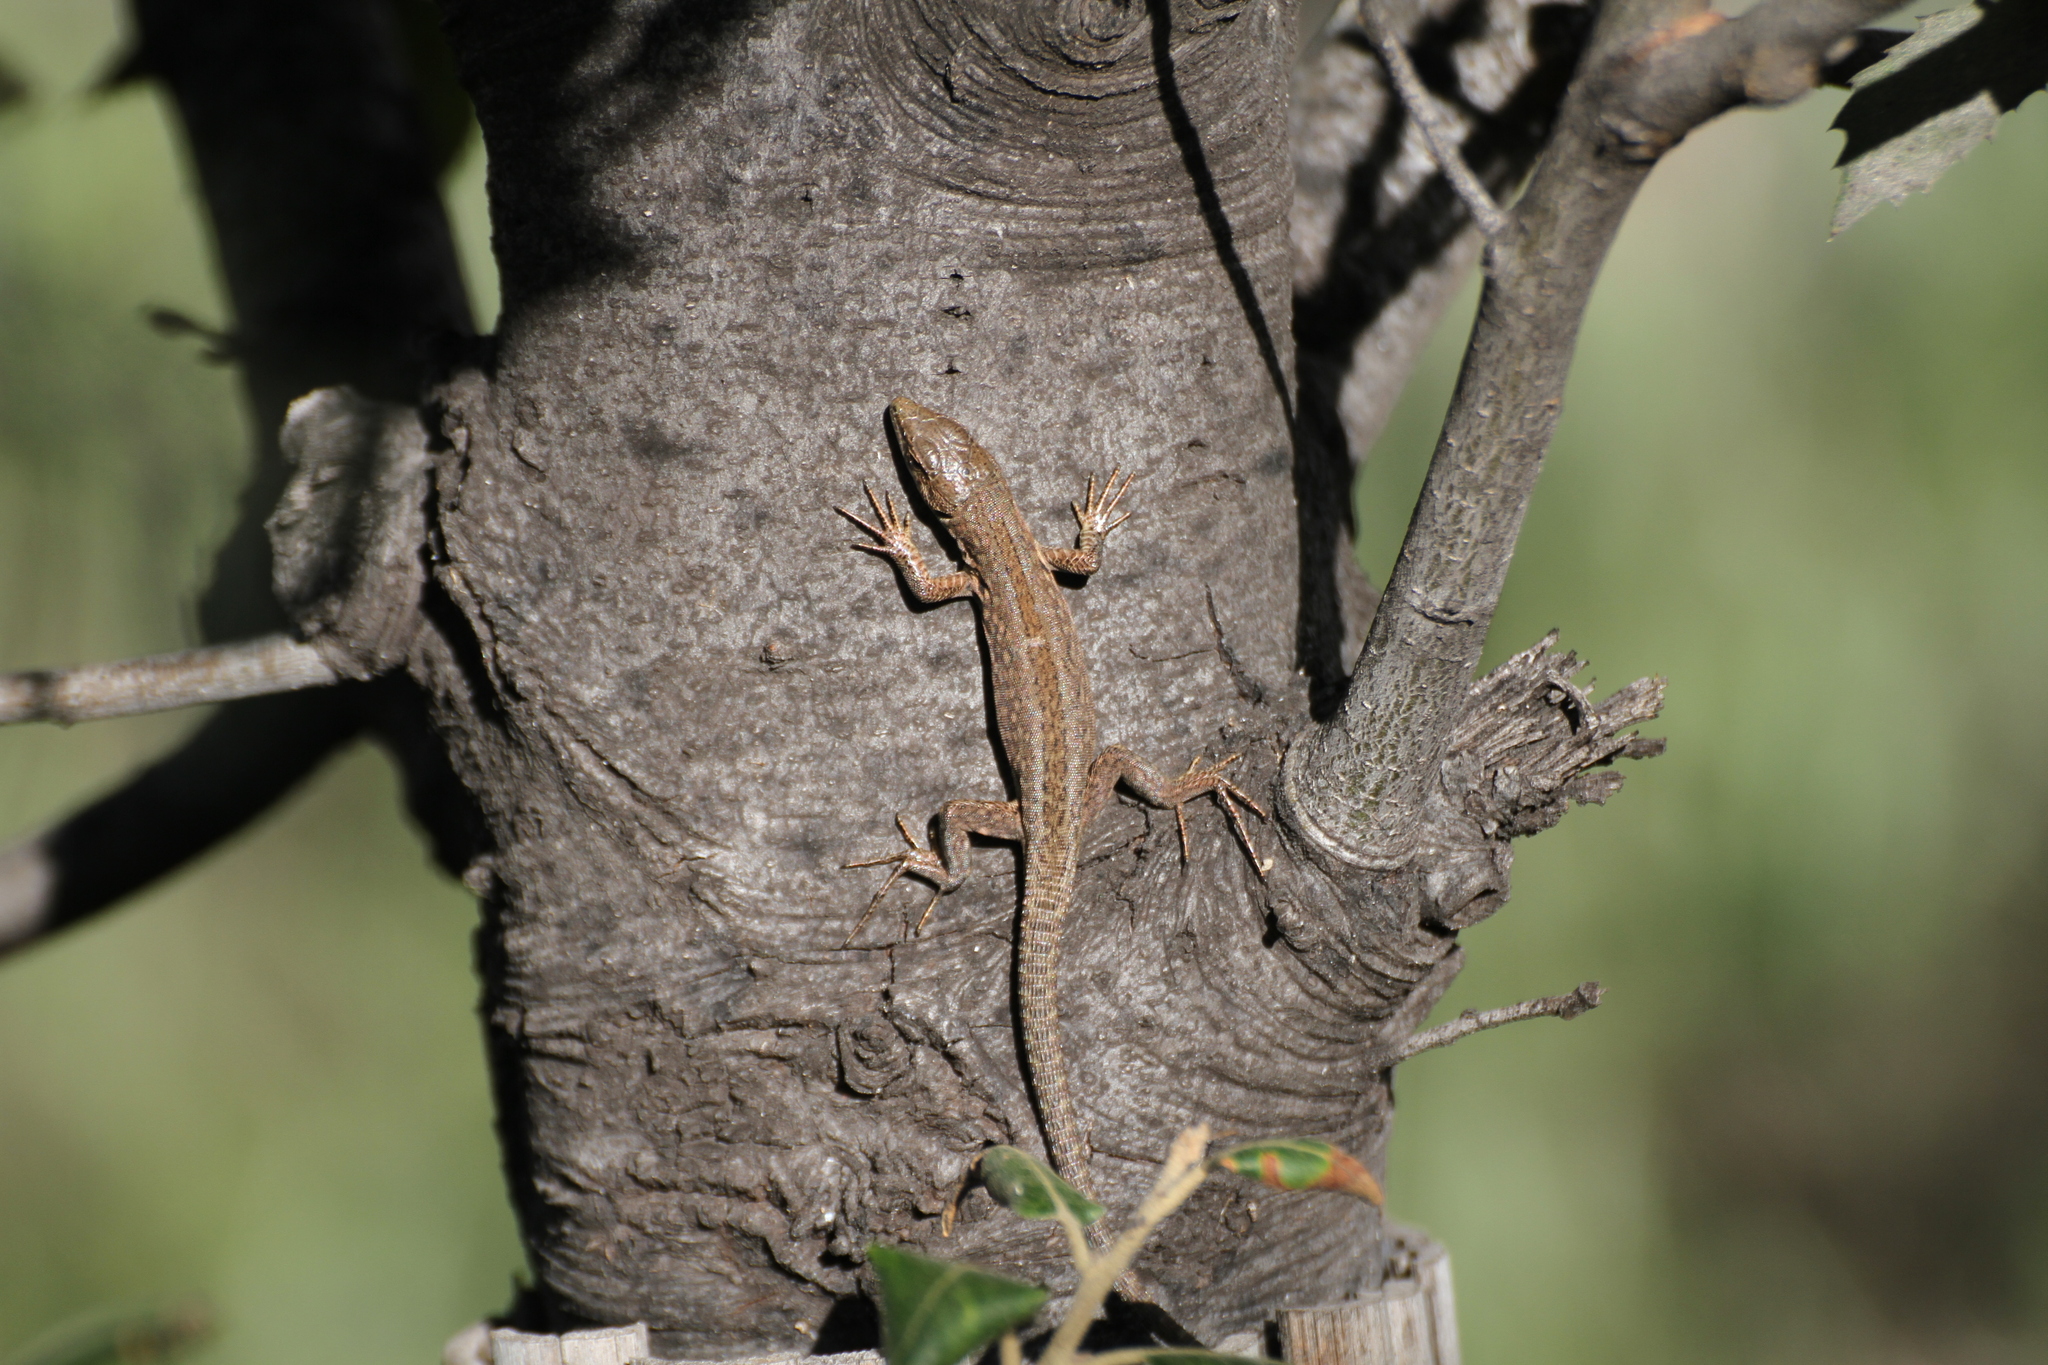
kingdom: Animalia
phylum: Chordata
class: Squamata
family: Lacertidae
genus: Podarcis
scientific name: Podarcis siculus
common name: Italian wall lizard
